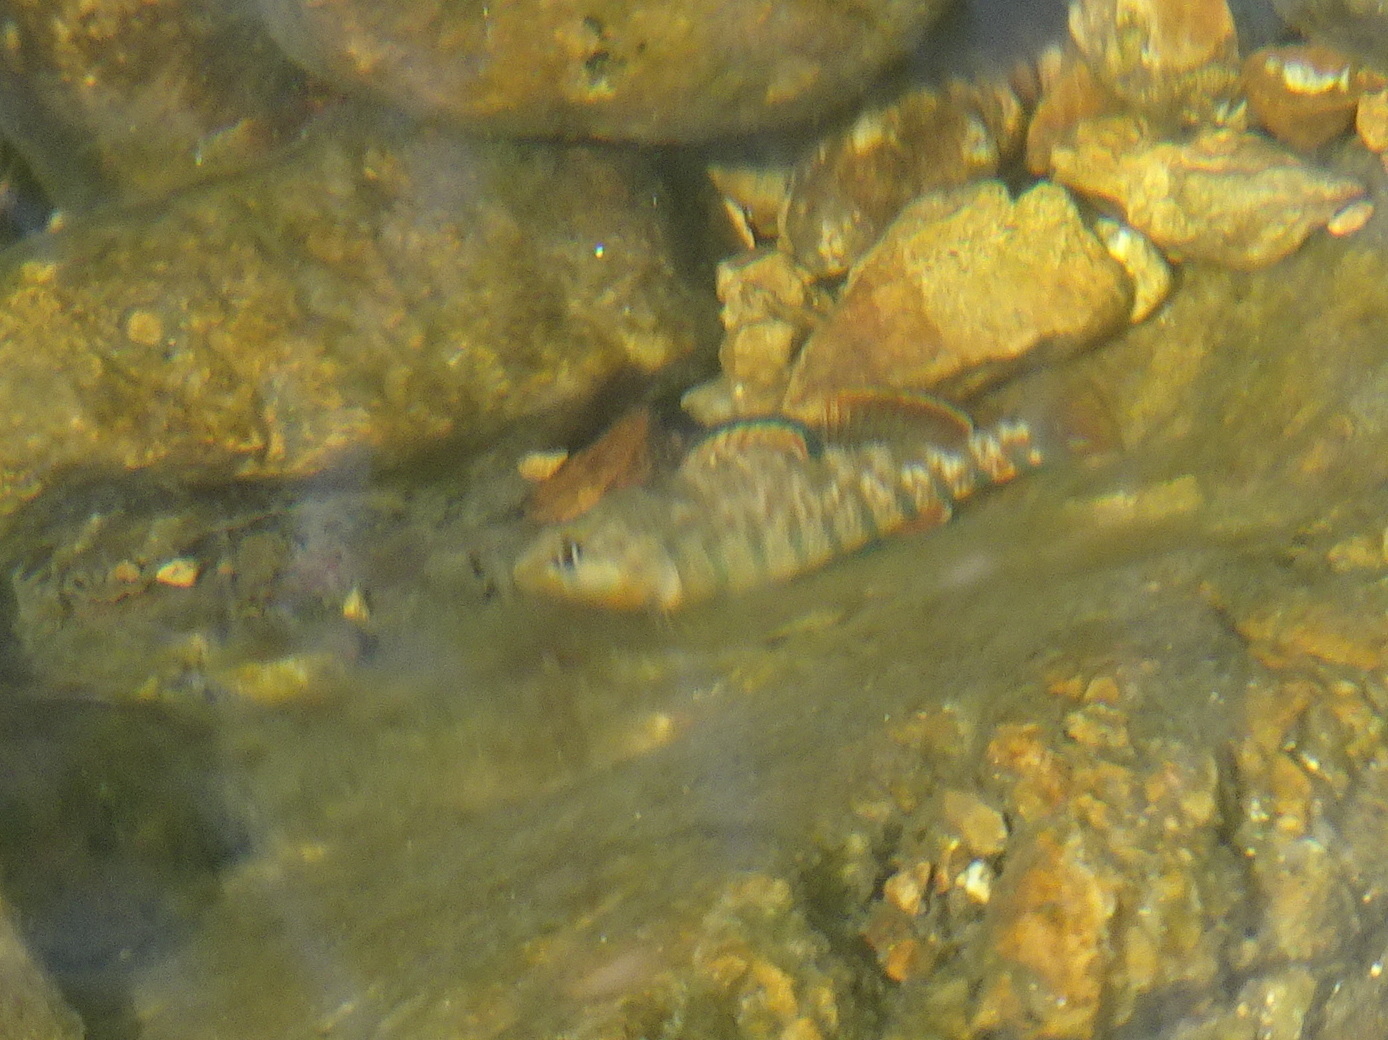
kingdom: Animalia
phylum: Chordata
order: Perciformes
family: Percidae
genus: Etheostoma
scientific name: Etheostoma caeruleum
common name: Rainbow darter
